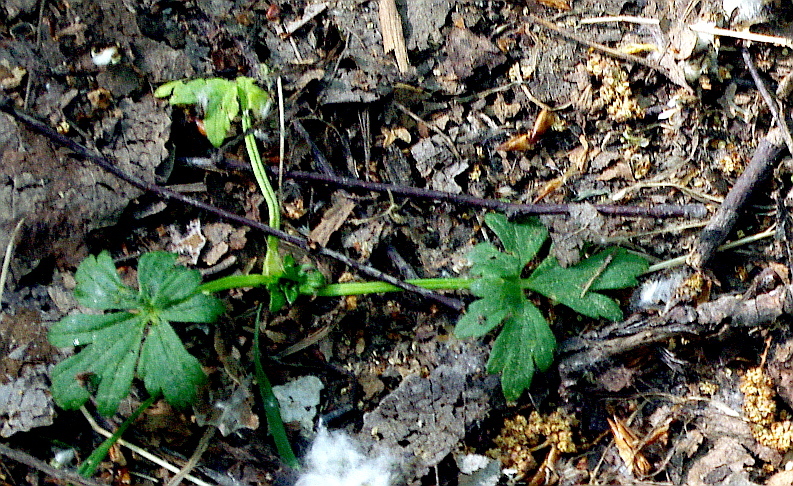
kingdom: Plantae
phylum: Tracheophyta
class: Magnoliopsida
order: Ranunculales
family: Ranunculaceae
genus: Ranunculus
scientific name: Ranunculus repens
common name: Creeping buttercup
